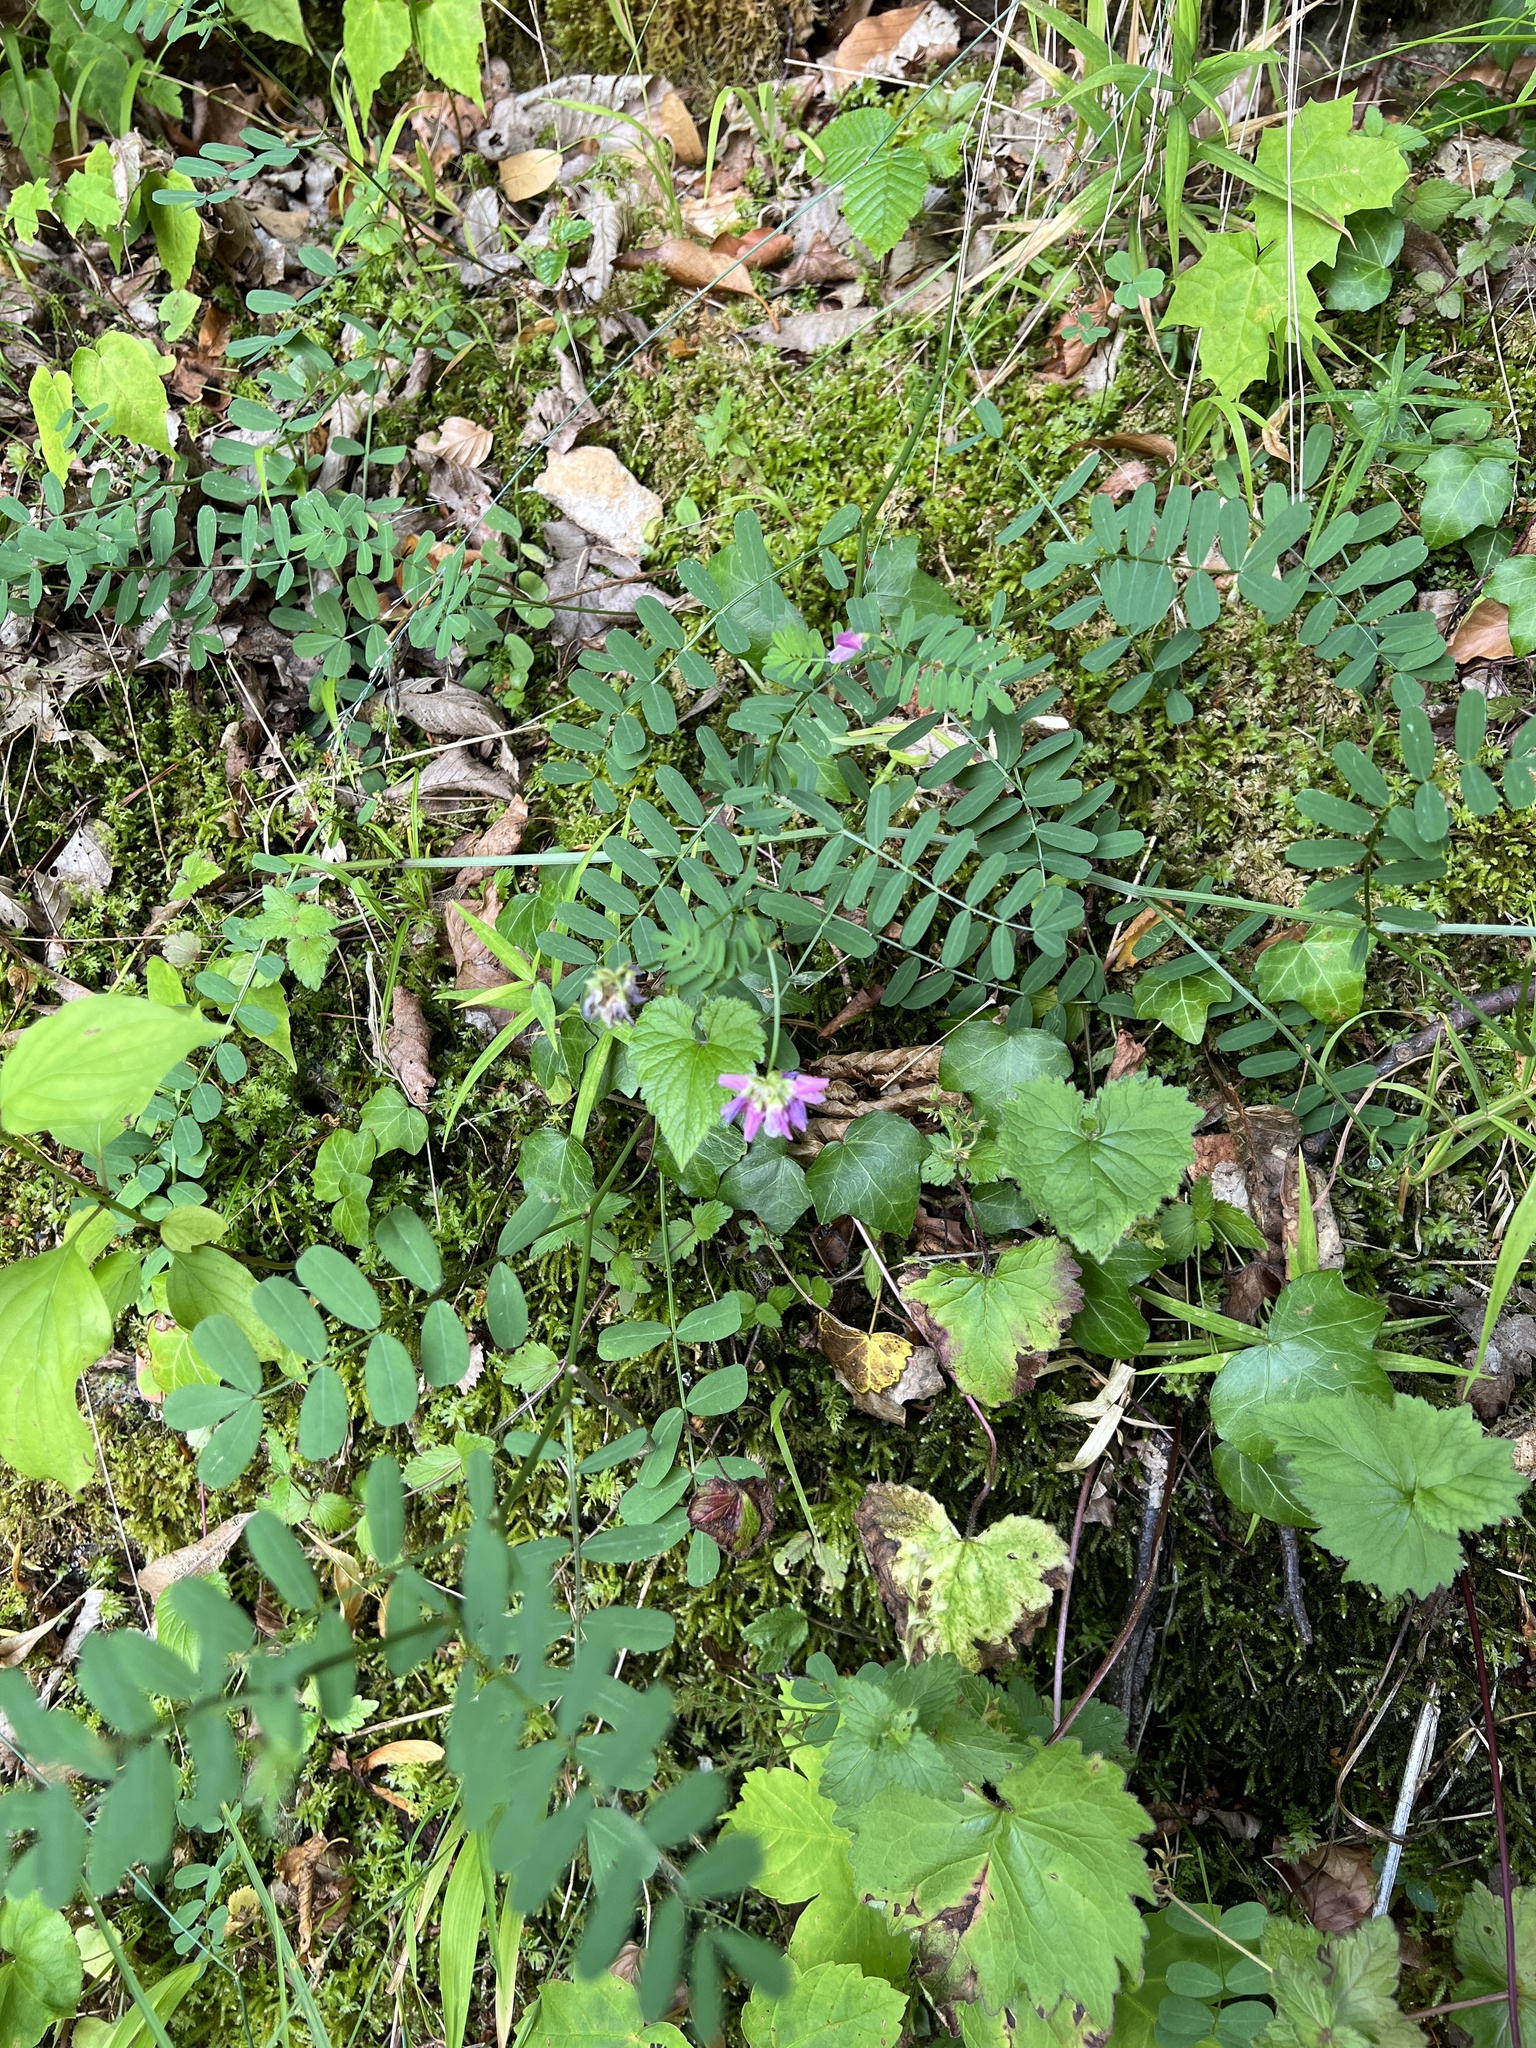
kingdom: Plantae
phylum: Tracheophyta
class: Magnoliopsida
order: Fabales
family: Fabaceae
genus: Coronilla
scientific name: Coronilla varia
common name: Crownvetch
